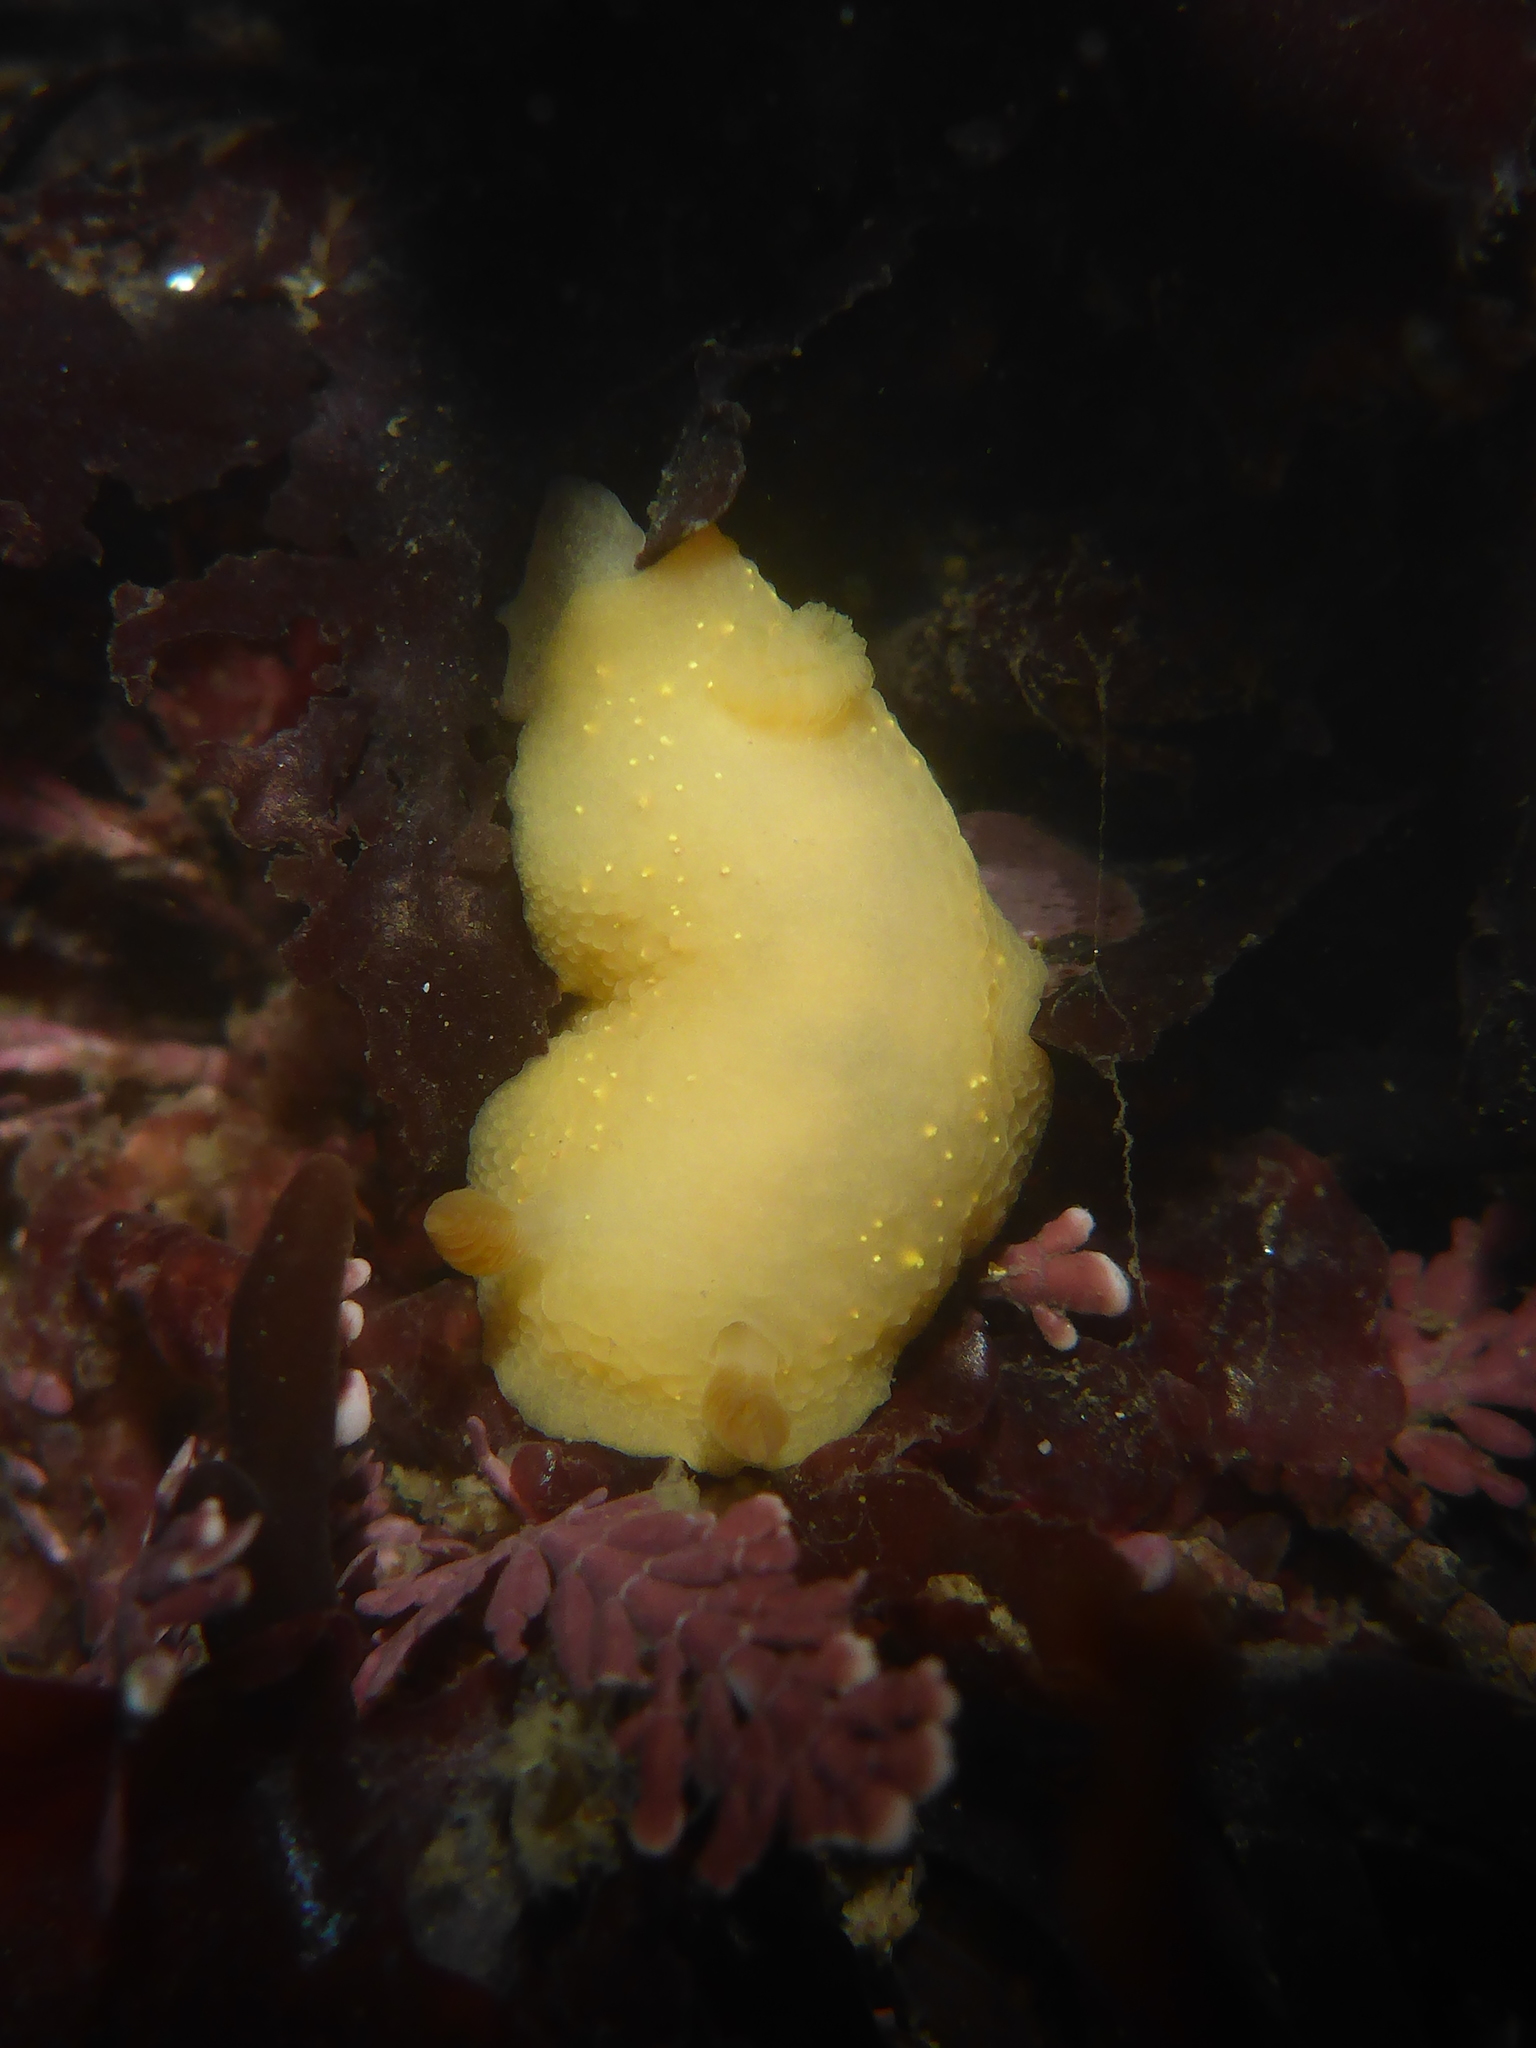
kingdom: Animalia
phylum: Mollusca
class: Gastropoda
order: Nudibranchia
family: Cadlinidae
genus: Cadlina
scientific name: Cadlina modesta
